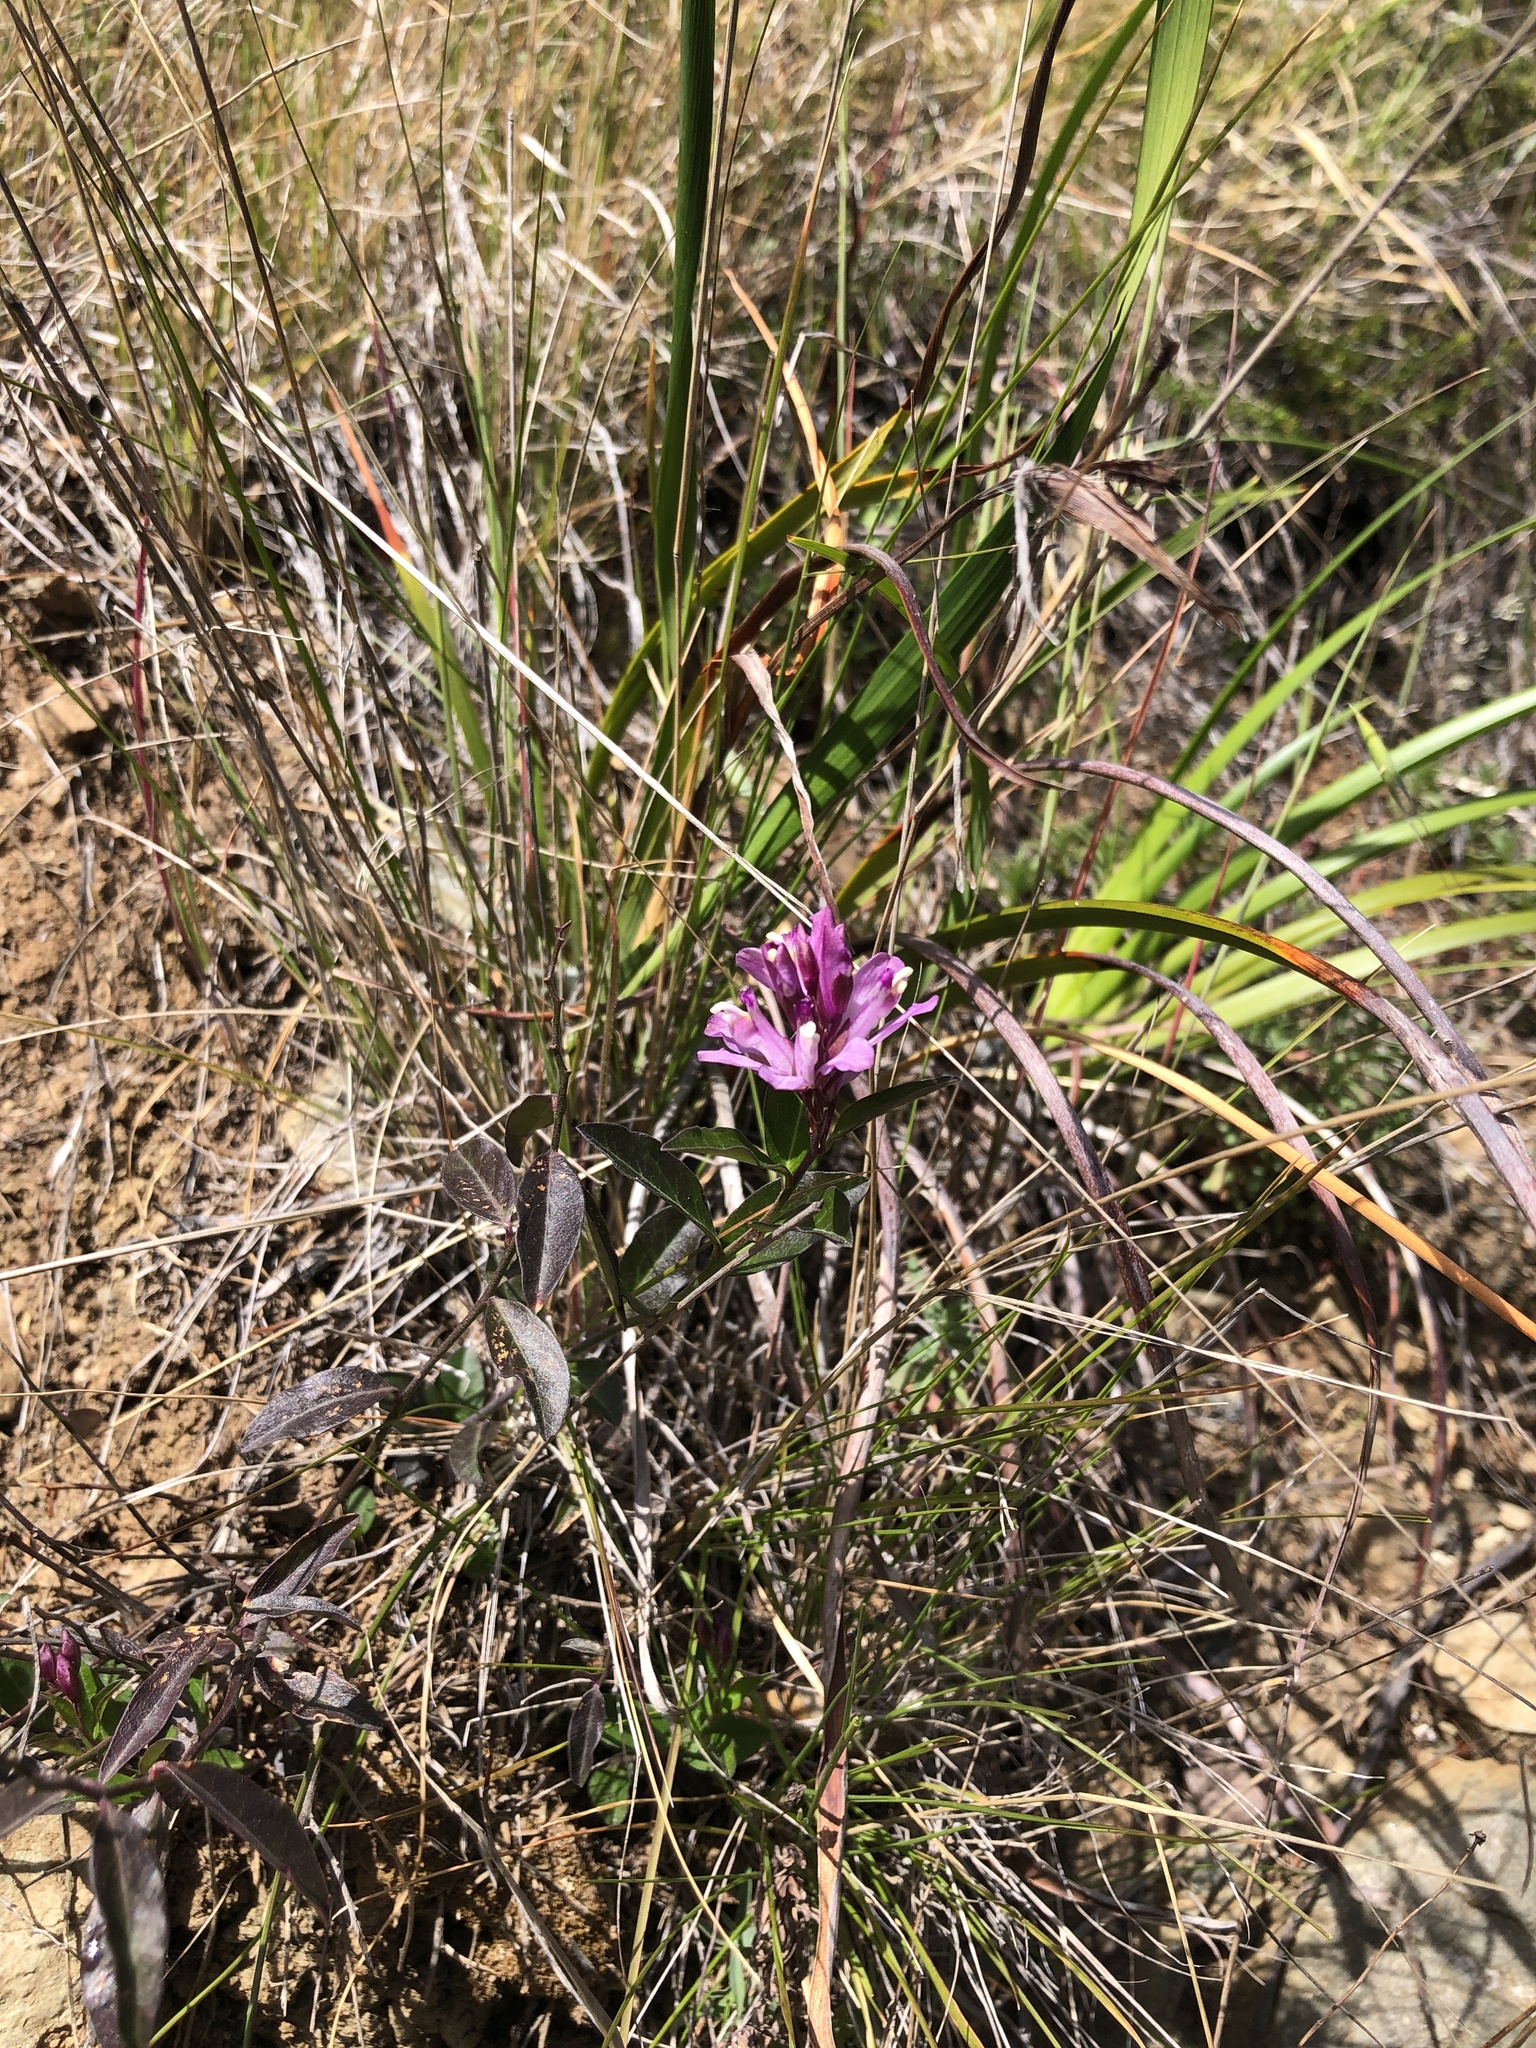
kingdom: Plantae
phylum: Tracheophyta
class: Magnoliopsida
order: Fabales
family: Polygalaceae
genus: Rhinotropis
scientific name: Rhinotropis californica
